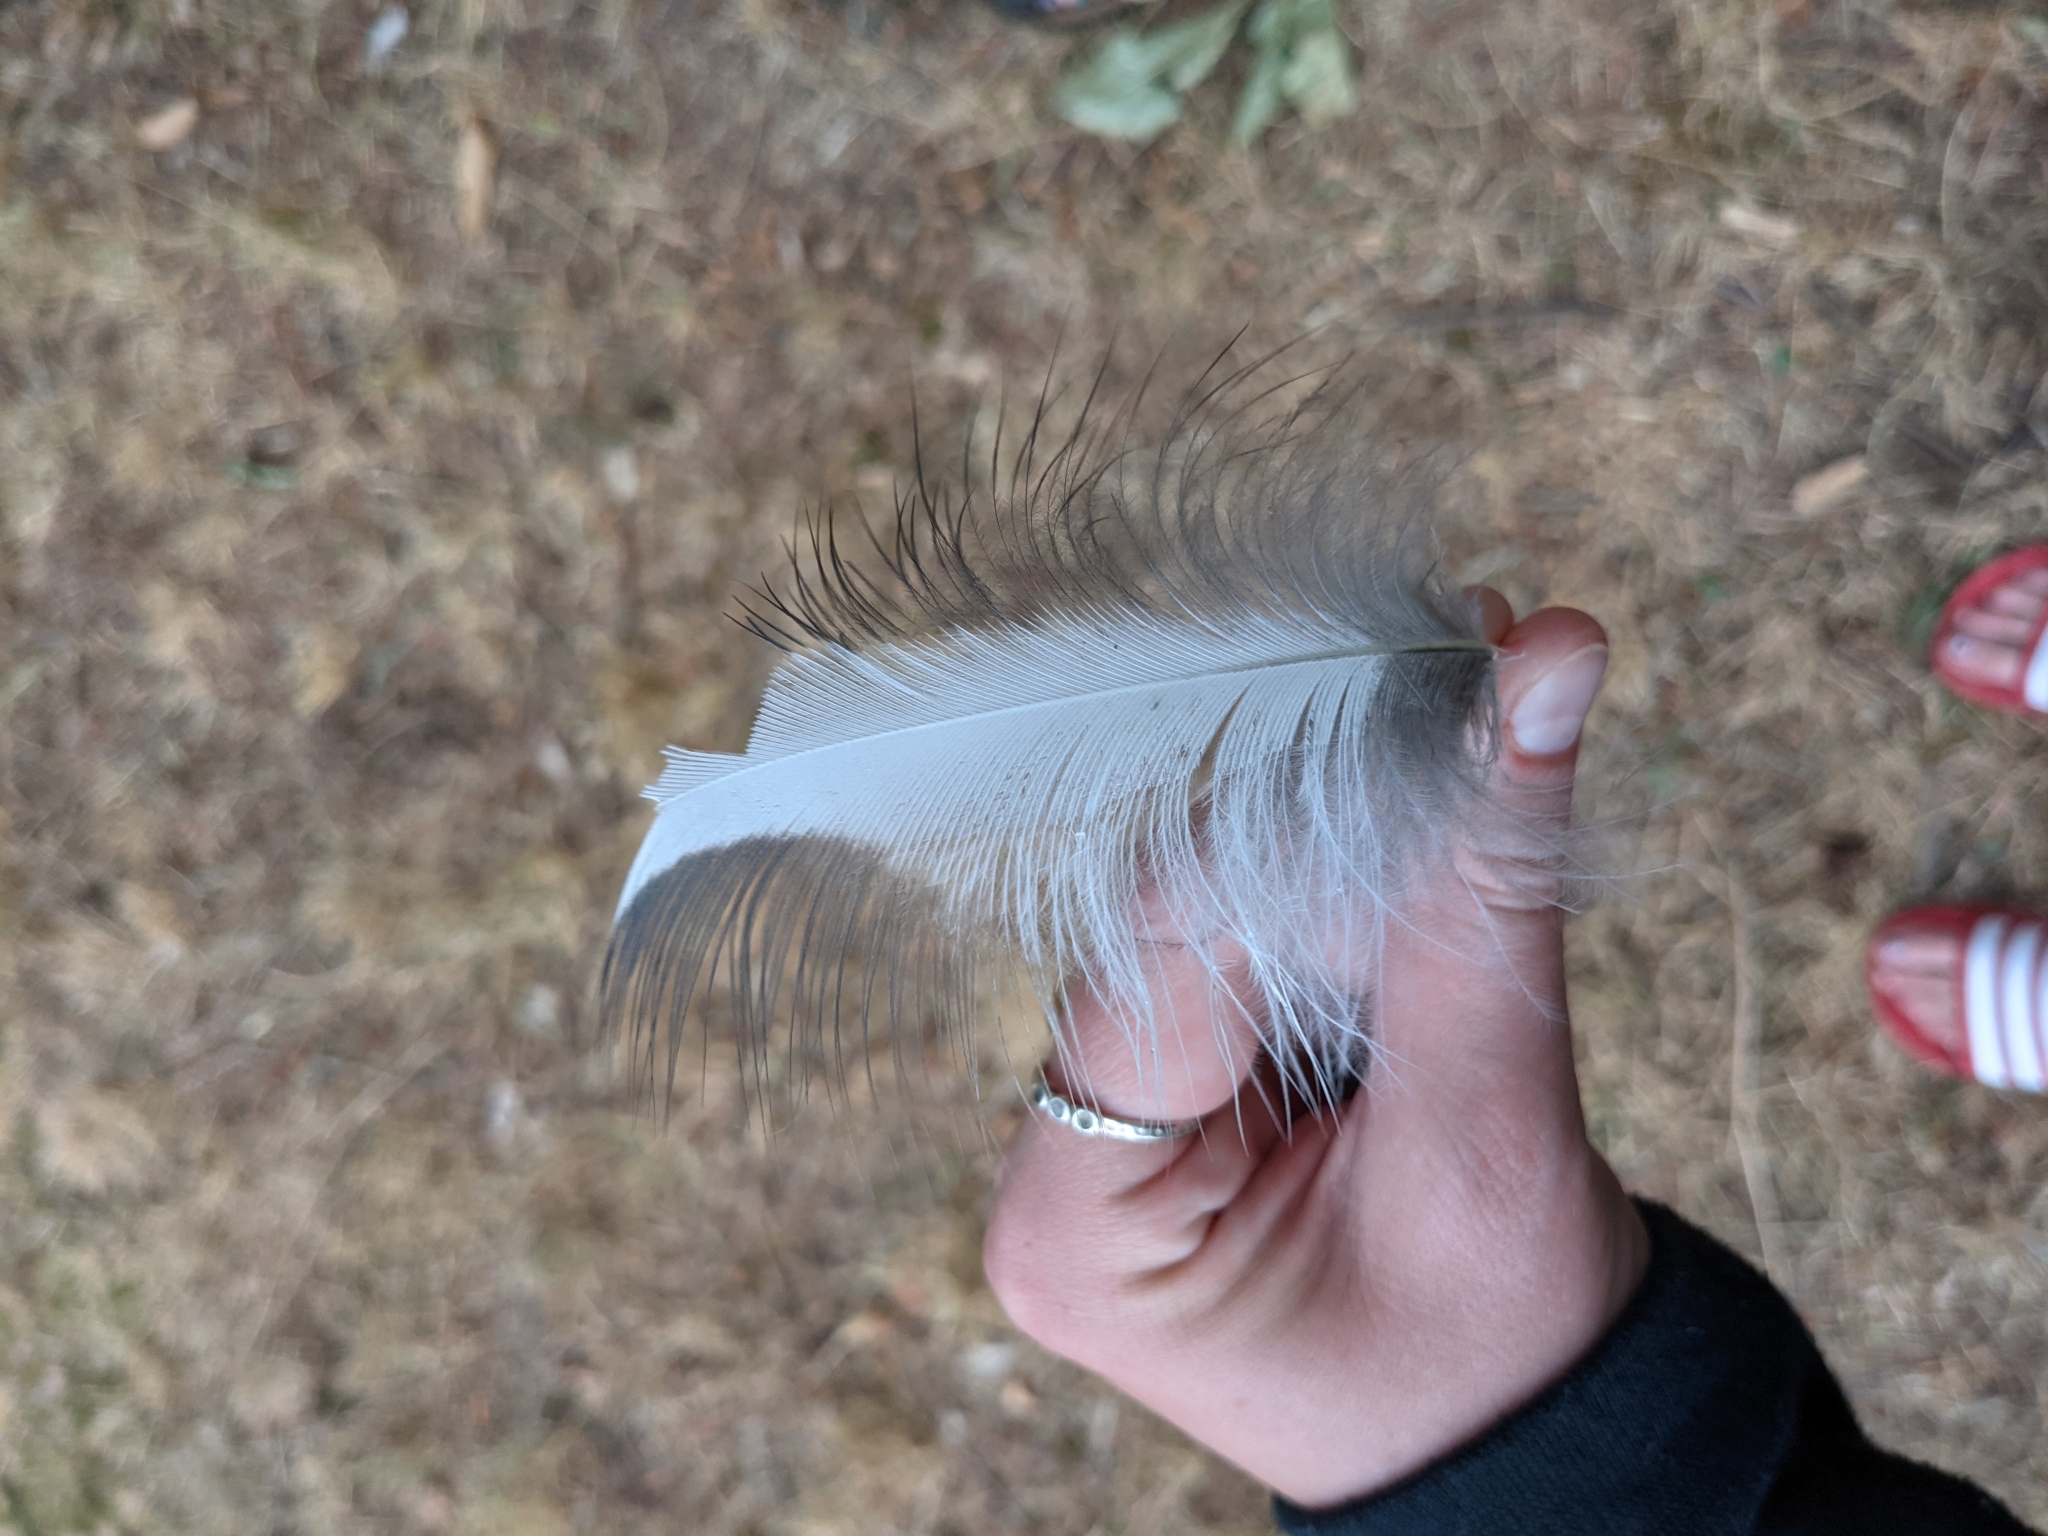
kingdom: Animalia
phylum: Chordata
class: Aves
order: Pelecaniformes
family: Ardeidae
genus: Ardea
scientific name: Ardea herodias
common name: Great blue heron
